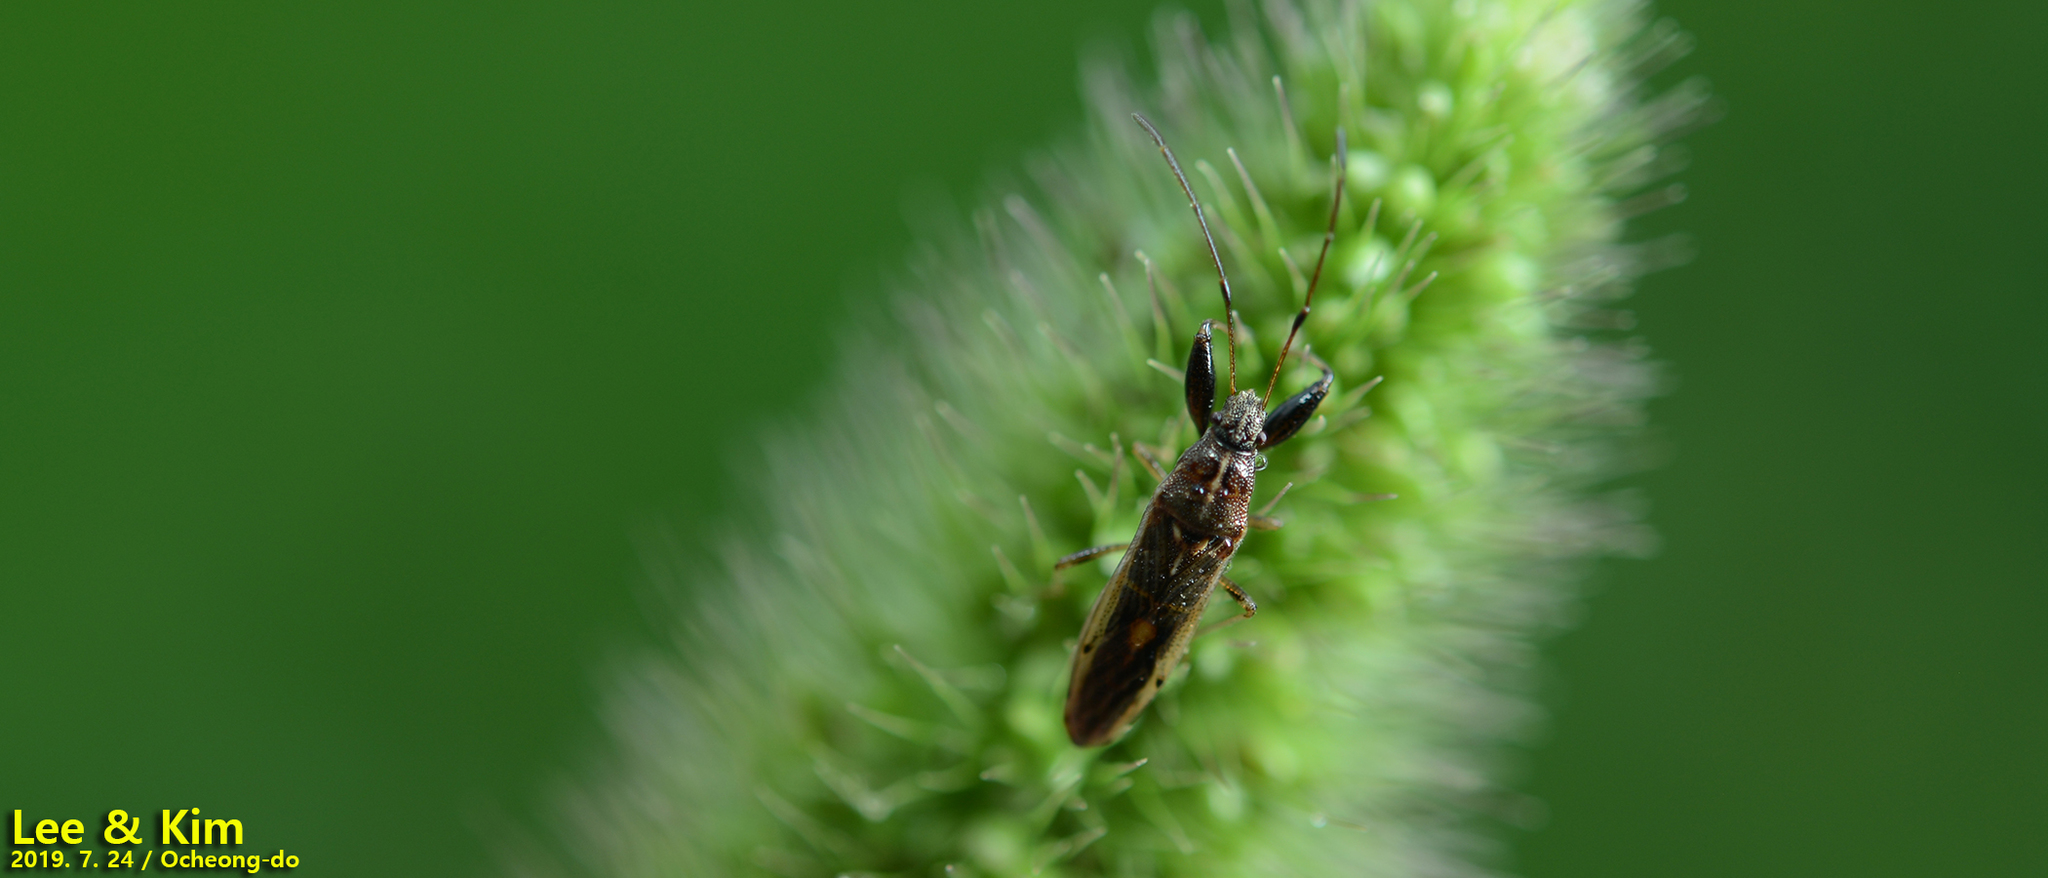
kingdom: Animalia
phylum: Arthropoda
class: Insecta
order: Hemiptera
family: Pachygronthidae
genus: Pachygrontha
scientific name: Pachygrontha antennata
